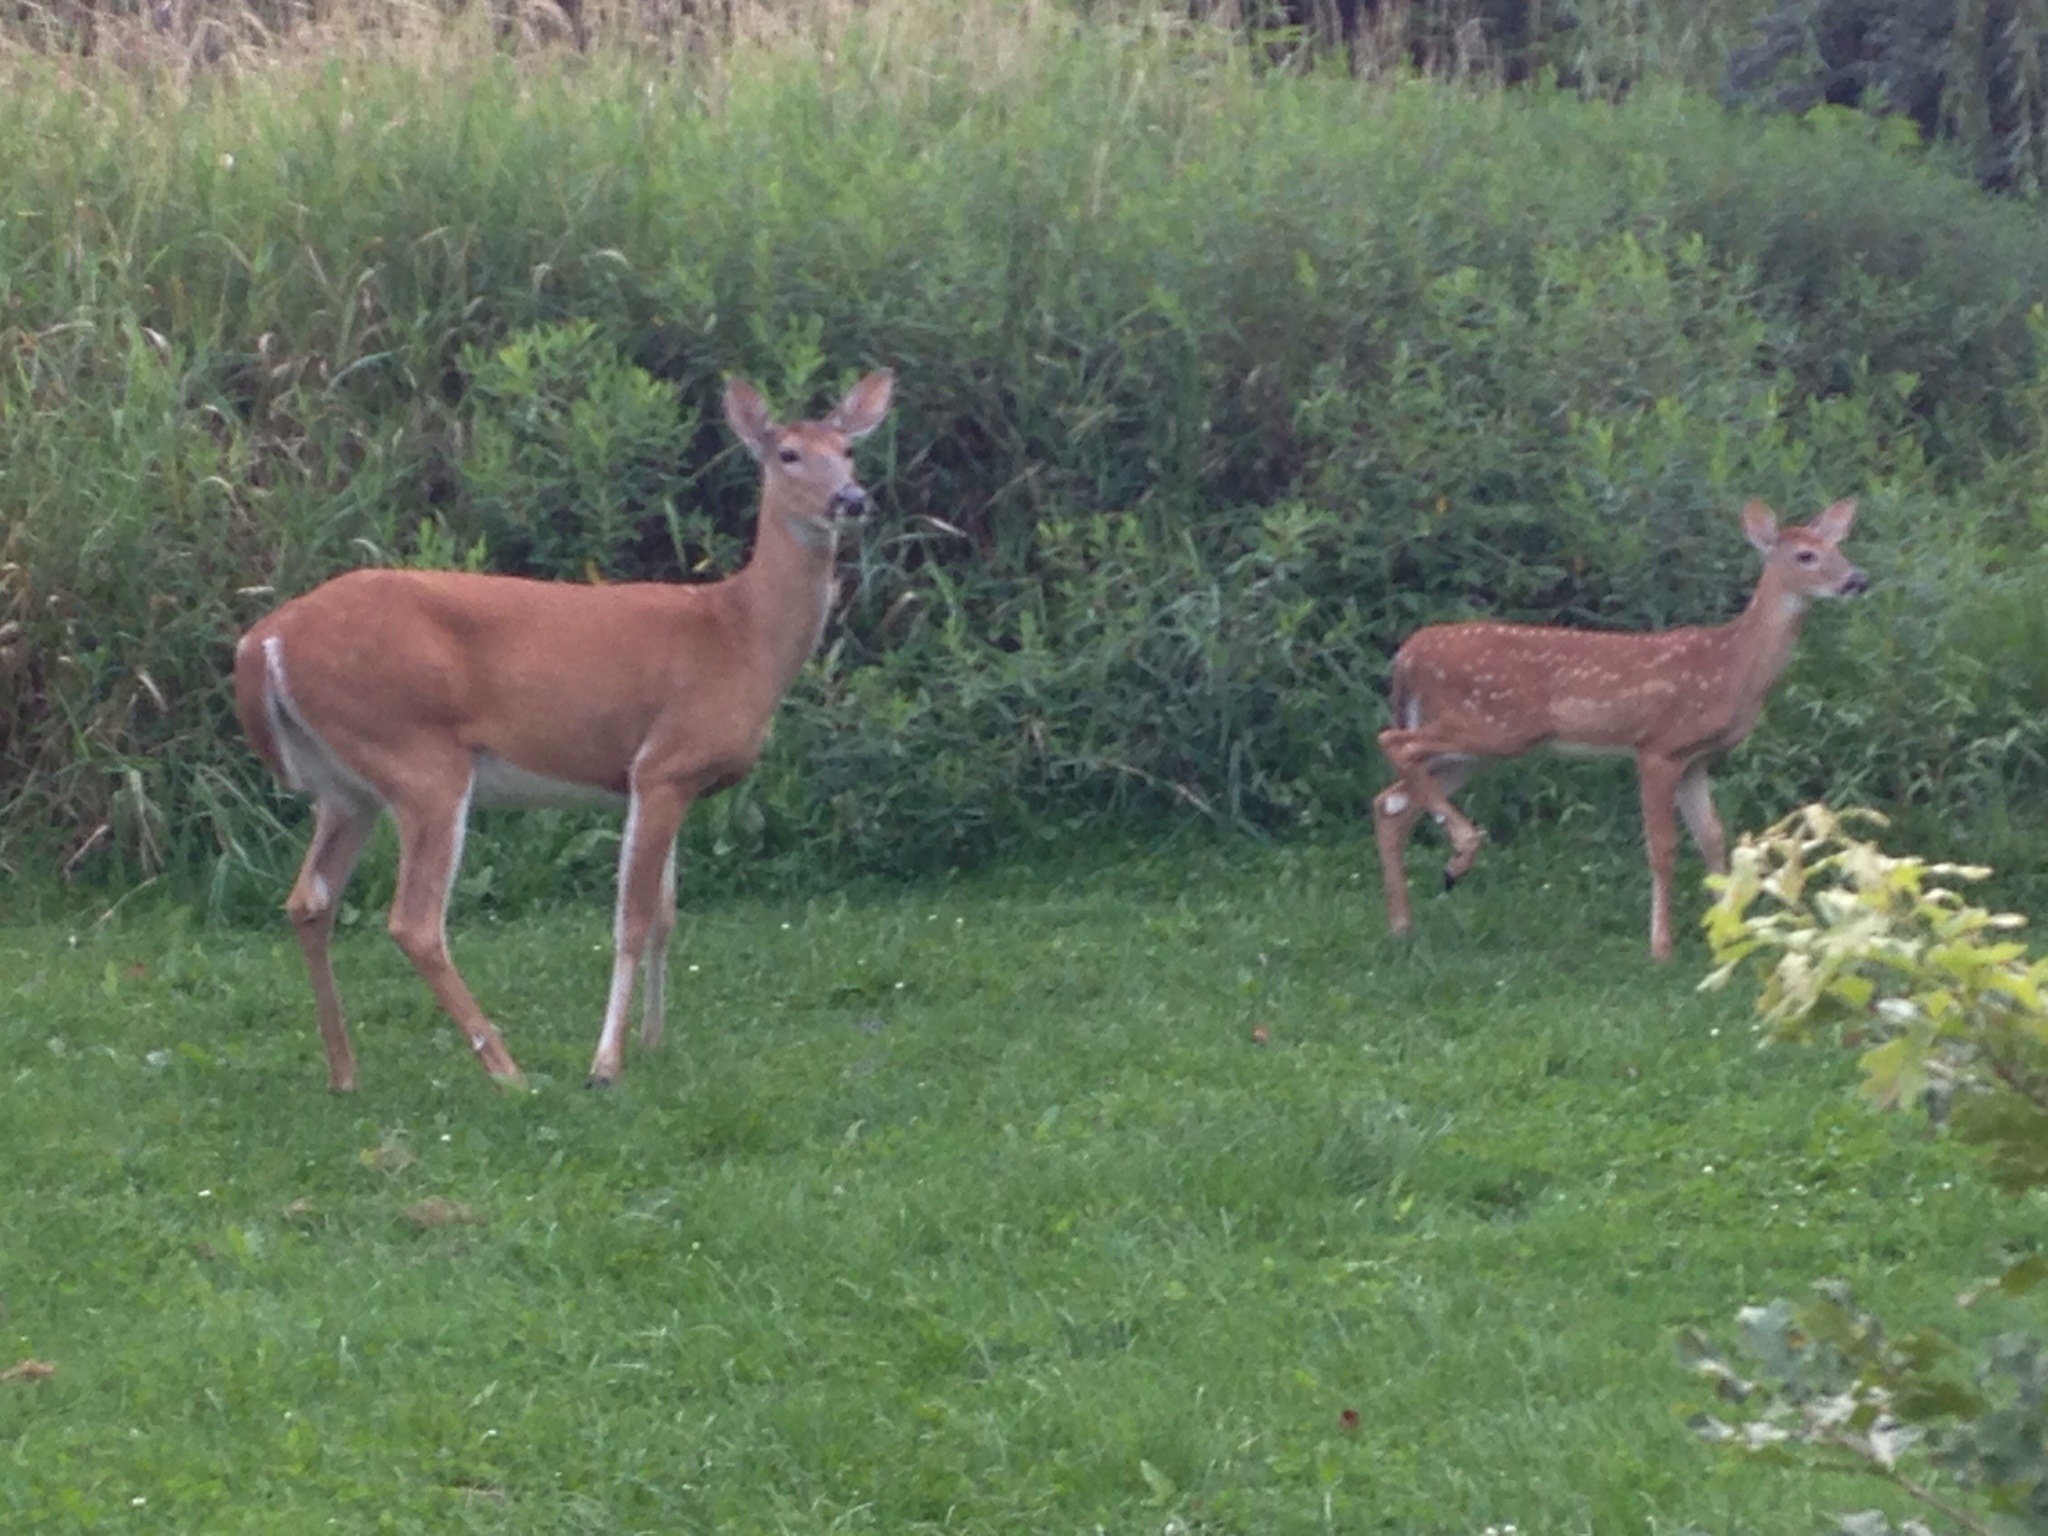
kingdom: Animalia
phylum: Chordata
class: Mammalia
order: Artiodactyla
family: Cervidae
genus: Odocoileus
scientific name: Odocoileus virginianus
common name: White-tailed deer
